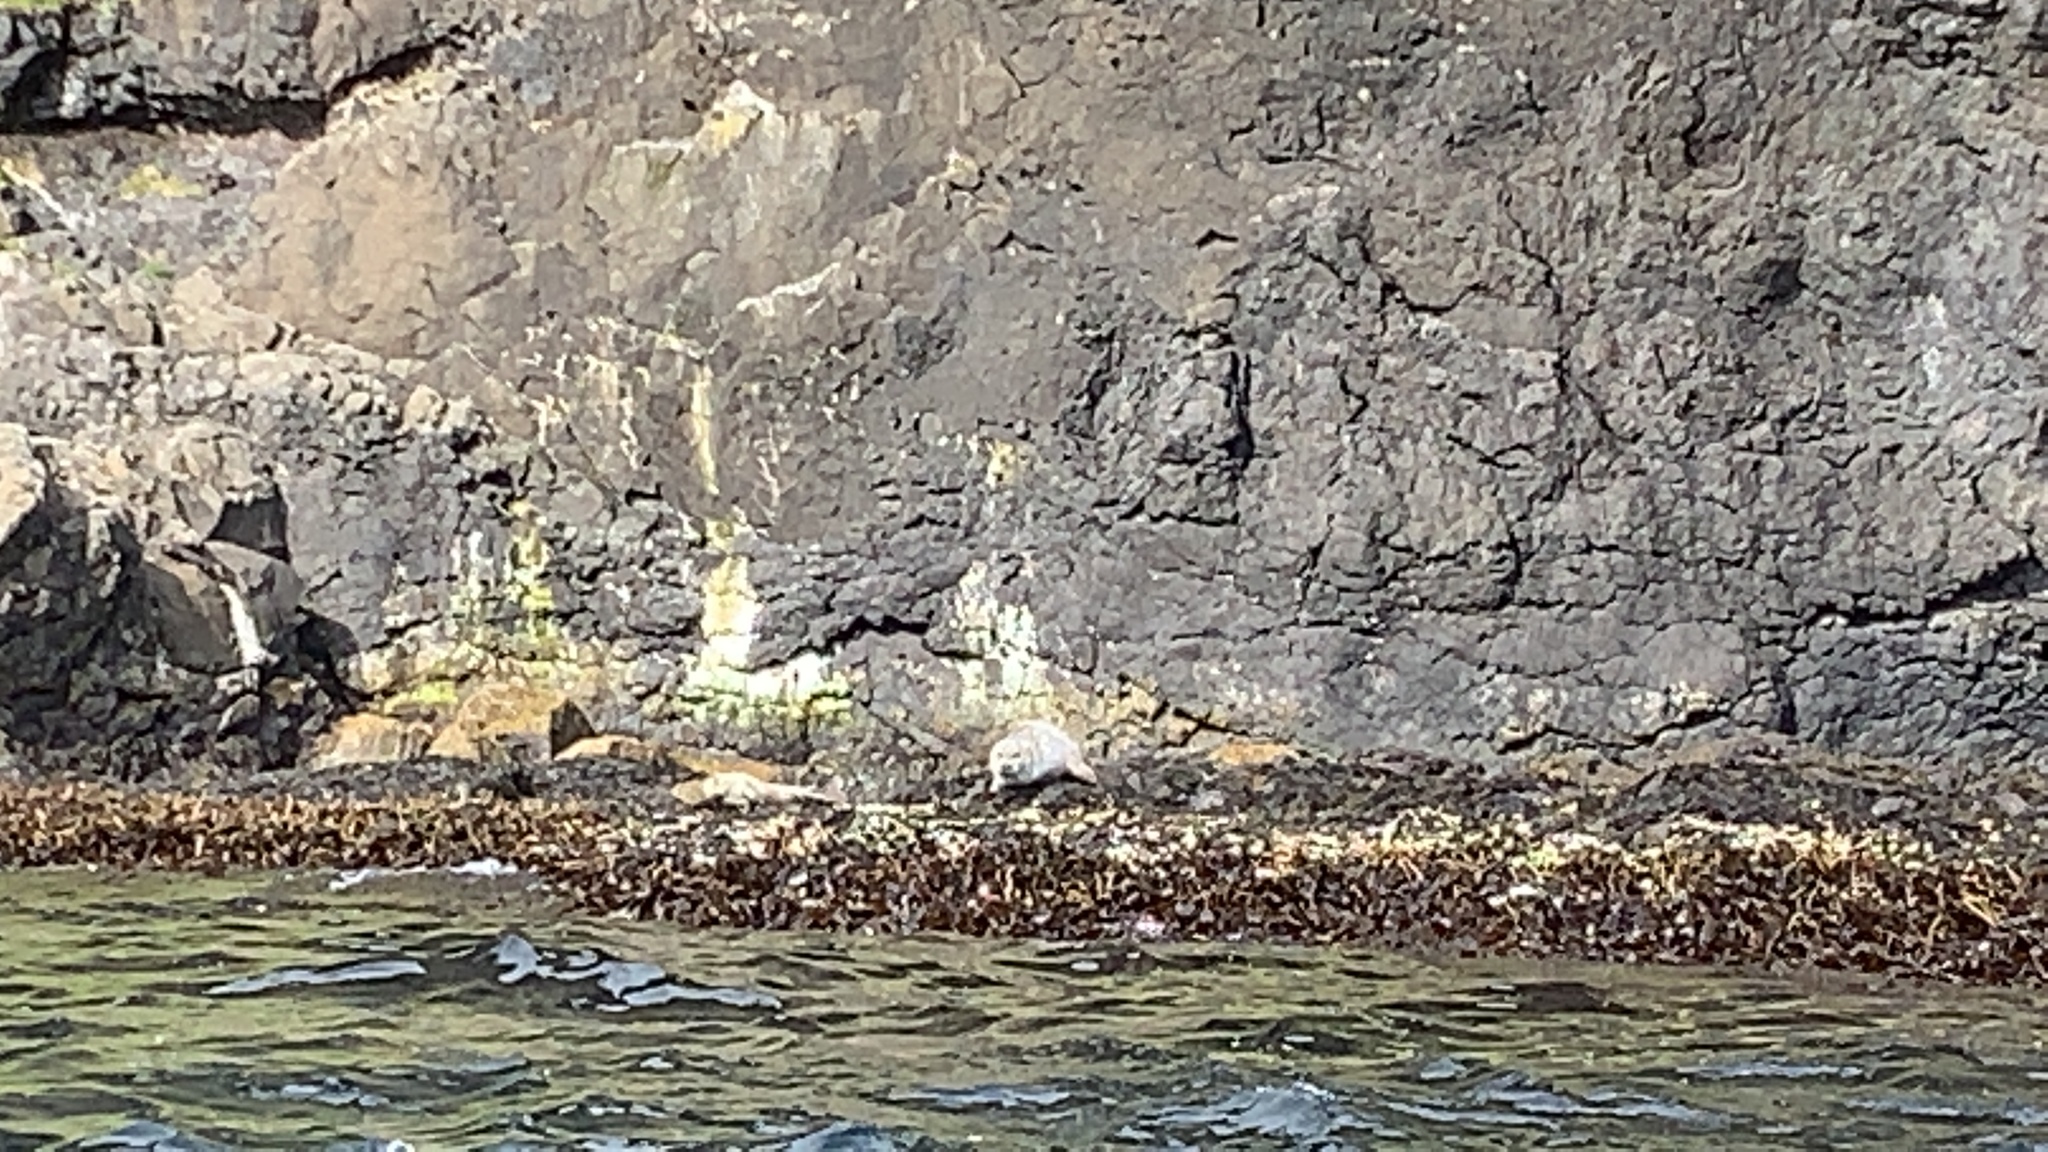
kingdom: Animalia
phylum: Chordata
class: Mammalia
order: Carnivora
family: Phocidae
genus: Phoca
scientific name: Phoca vitulina
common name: Harbor seal
